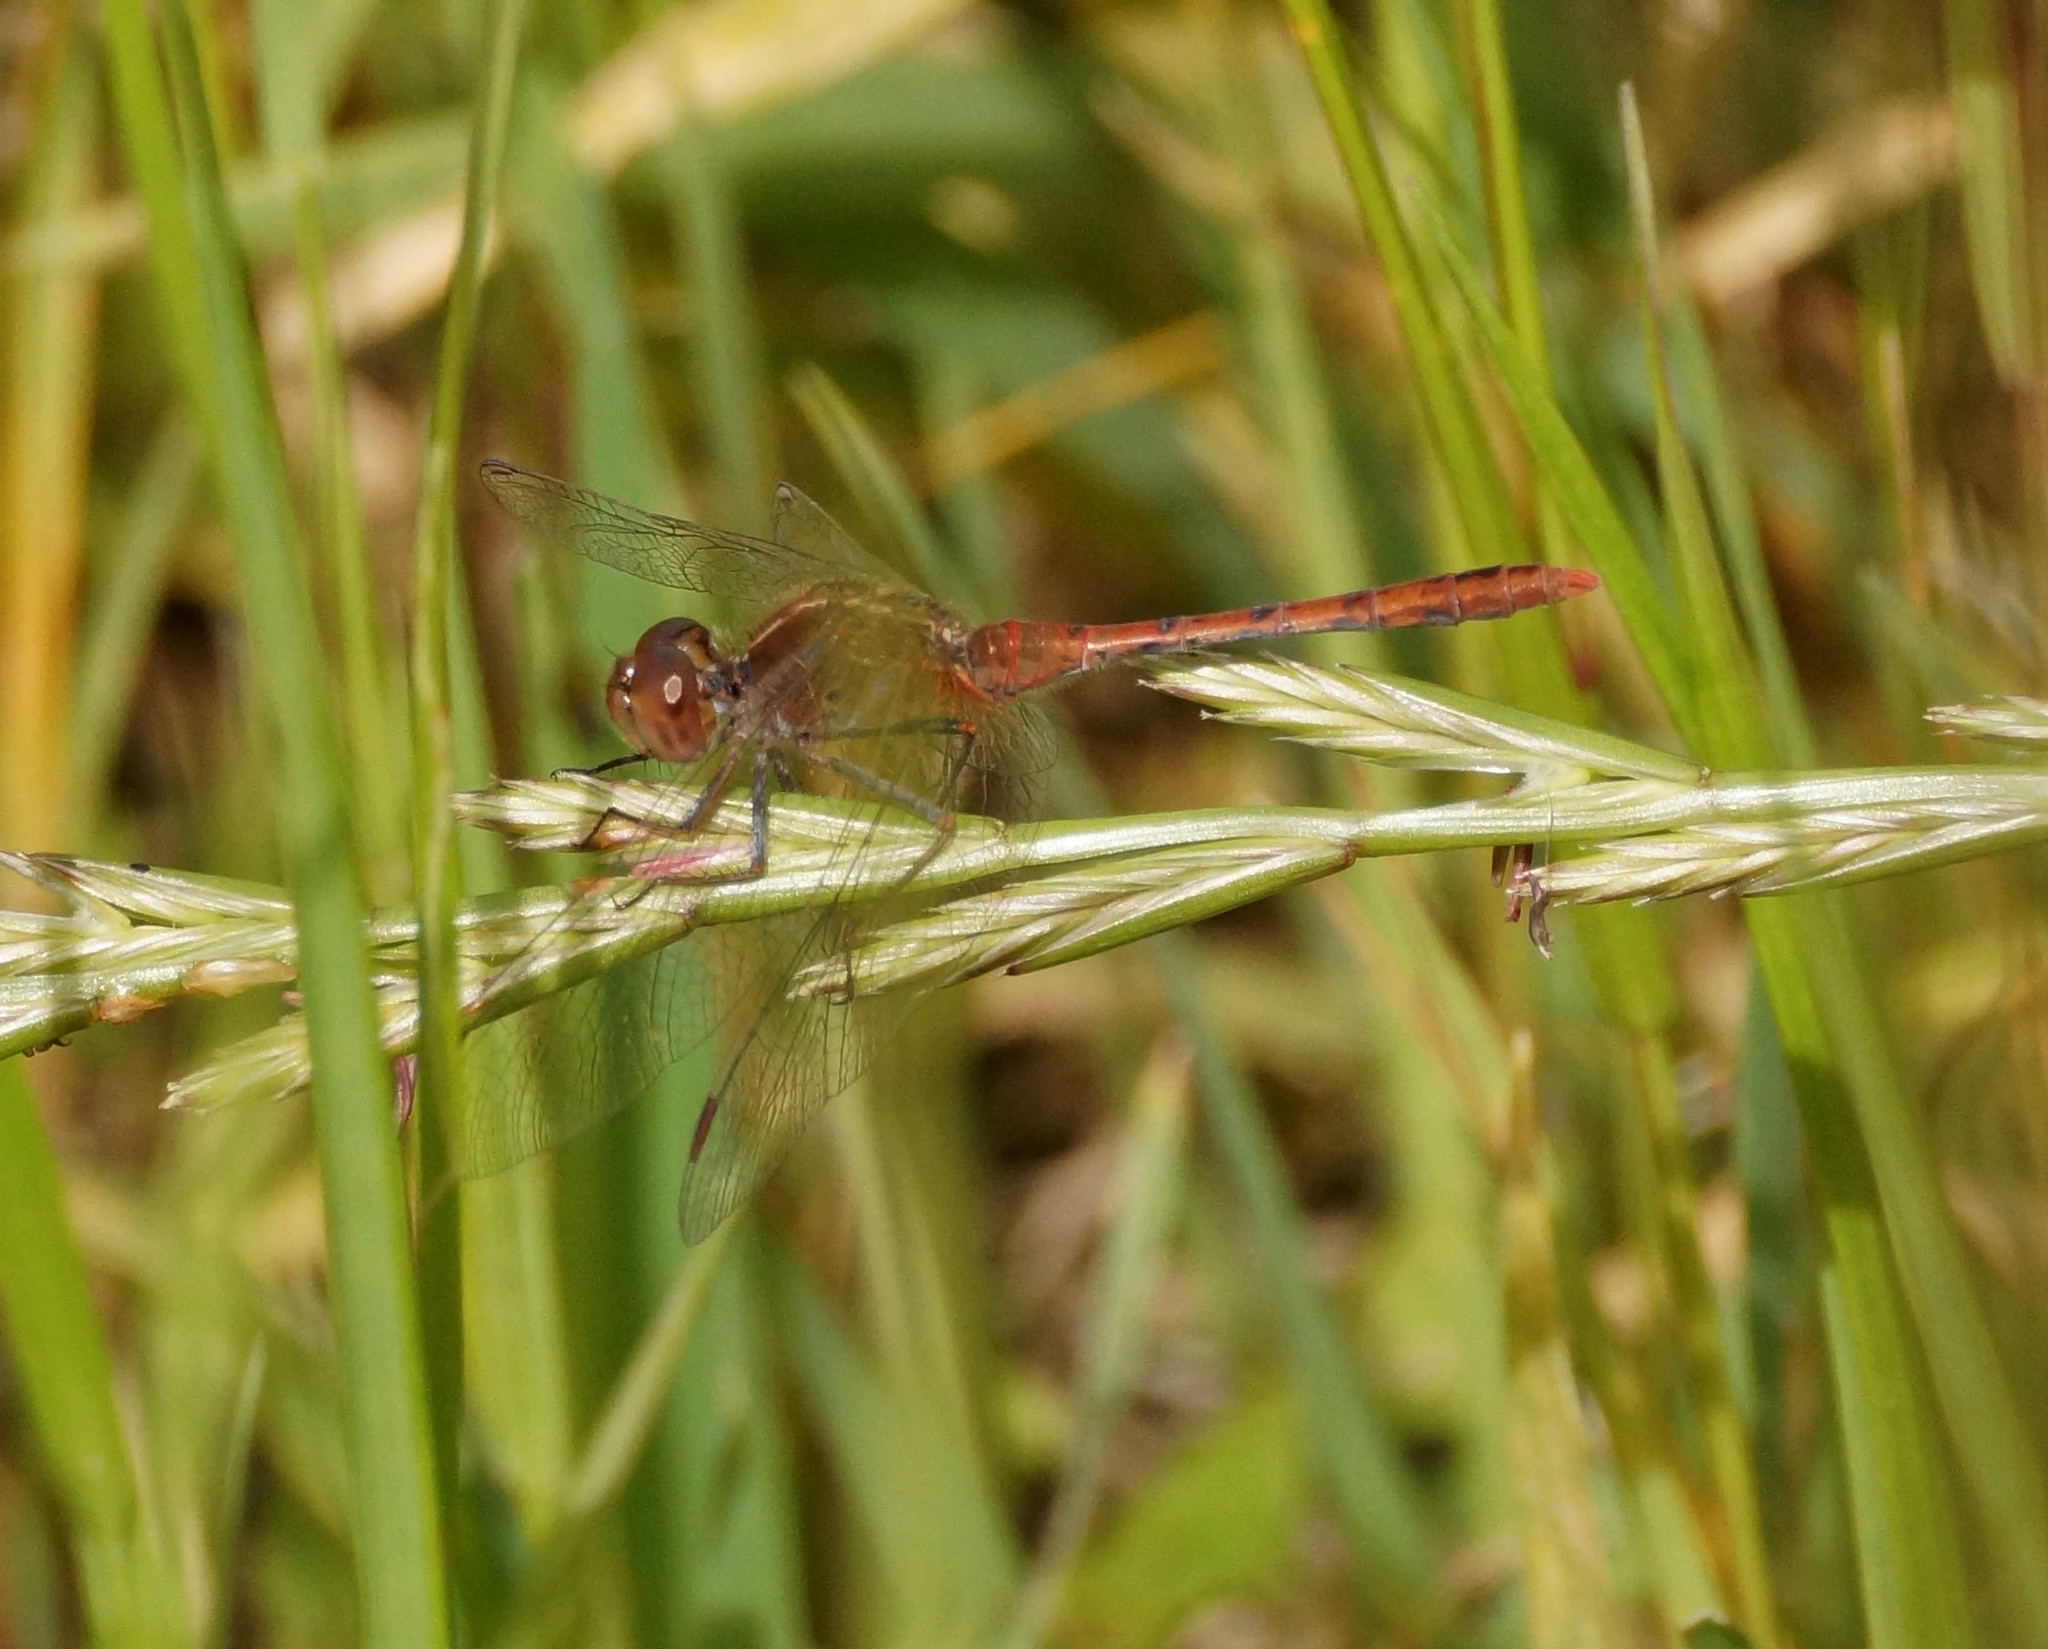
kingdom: Animalia
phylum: Arthropoda
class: Insecta
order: Odonata
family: Libellulidae
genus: Diplacodes
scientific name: Diplacodes bipunctata
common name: Red percher dragonfly
